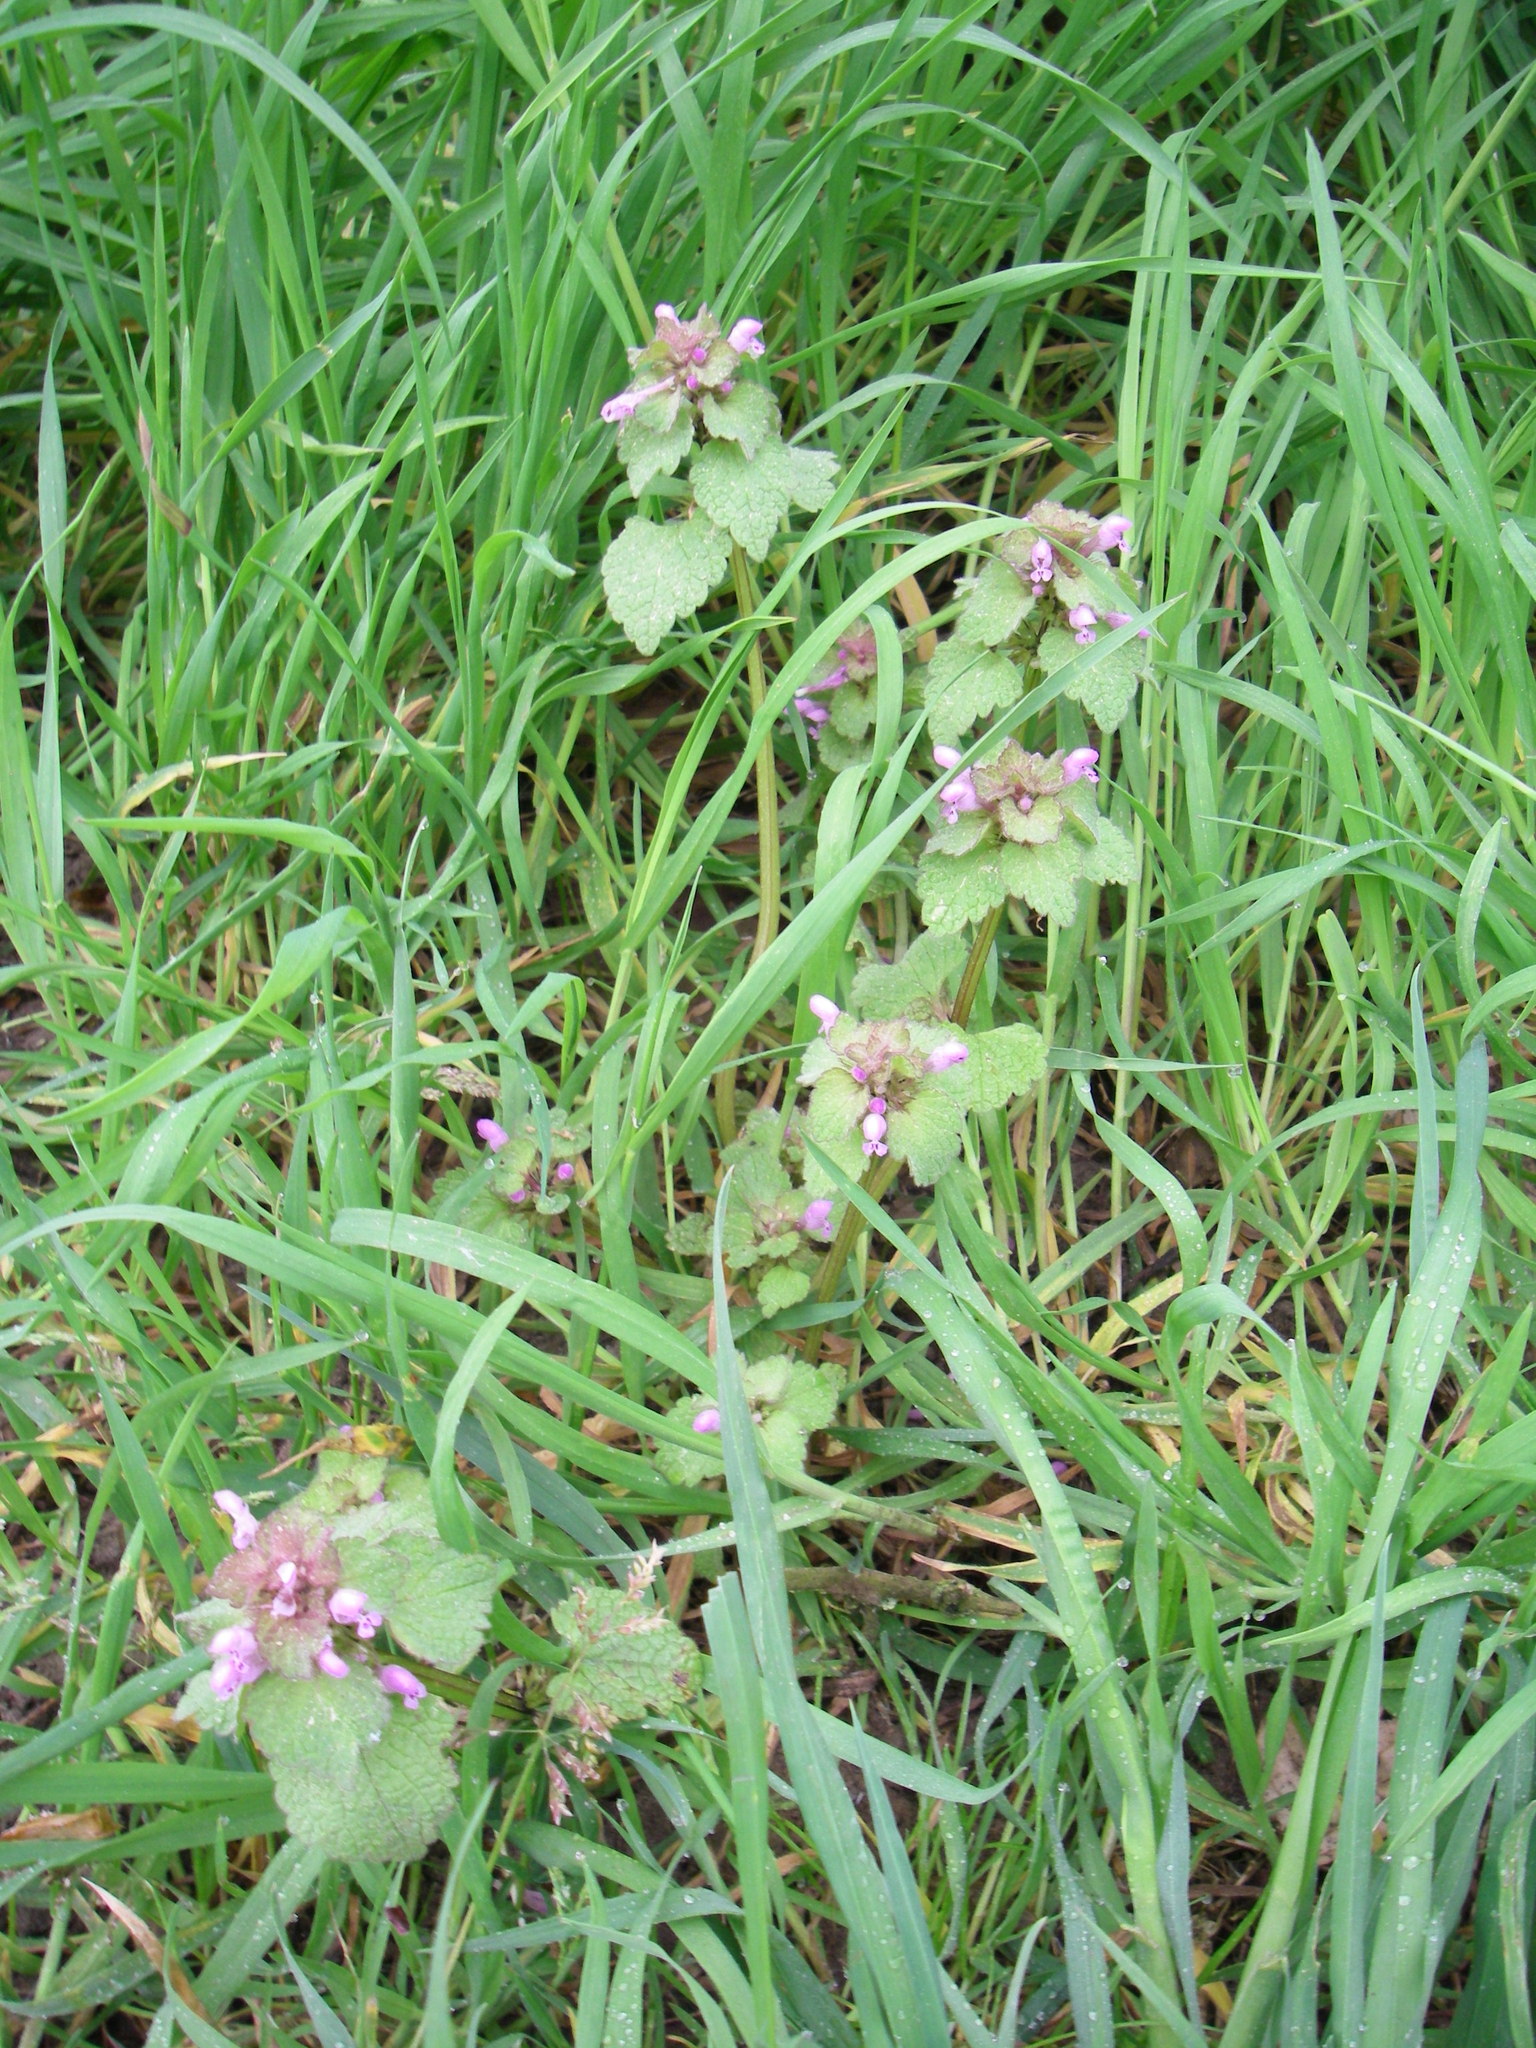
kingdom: Plantae
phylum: Tracheophyta
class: Magnoliopsida
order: Lamiales
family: Lamiaceae
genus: Lamium
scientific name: Lamium purpureum
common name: Red dead-nettle
